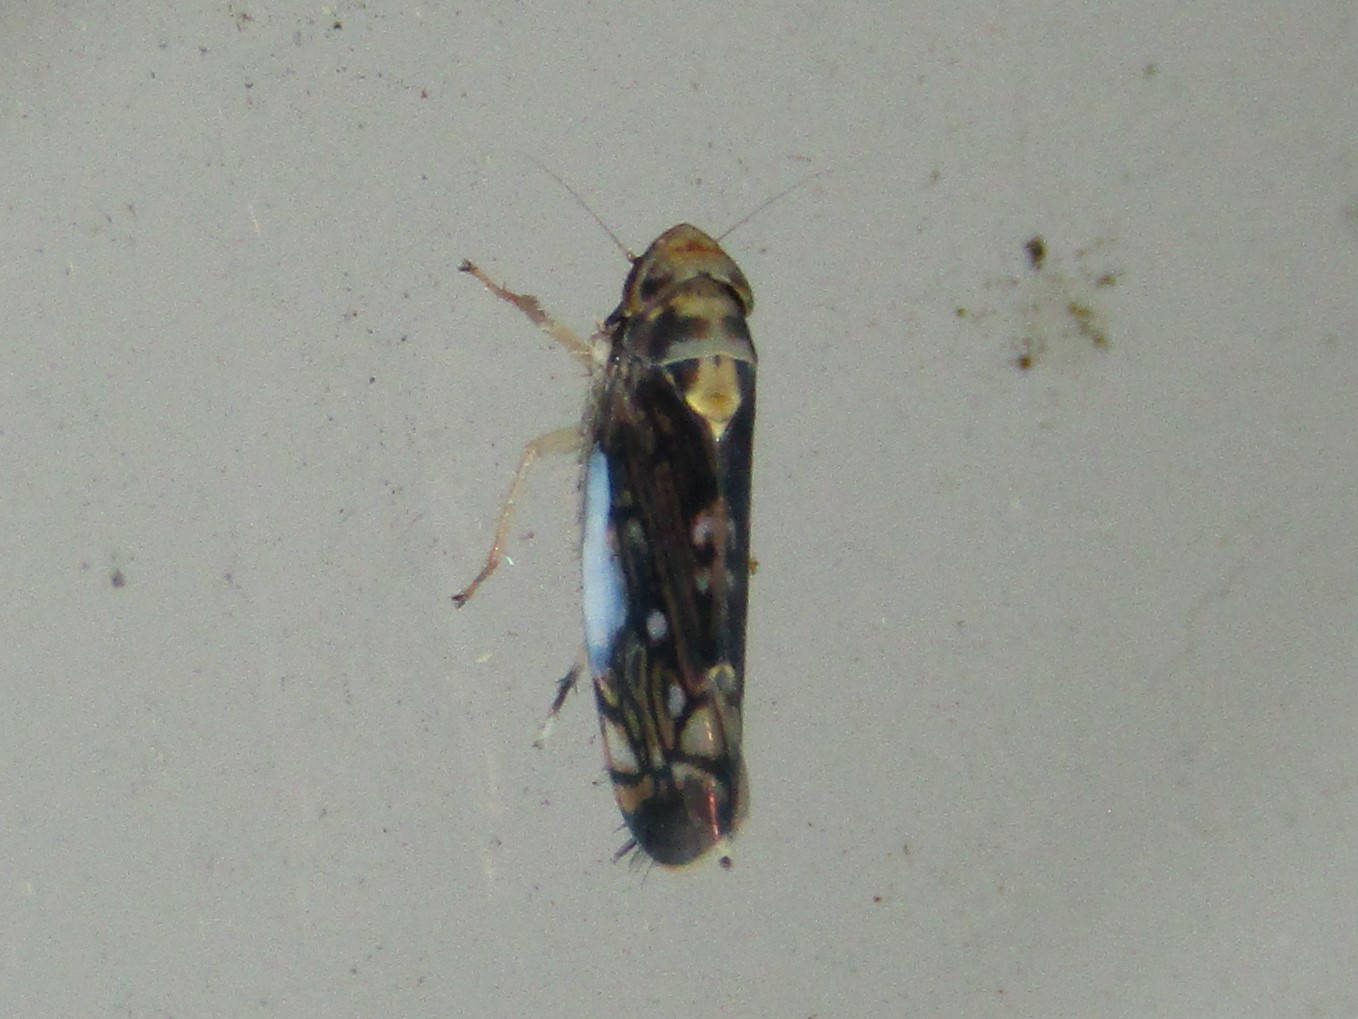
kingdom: Animalia
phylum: Arthropoda
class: Insecta
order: Hemiptera
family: Cicadellidae
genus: Scaphoideus
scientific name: Scaphoideus pullus
